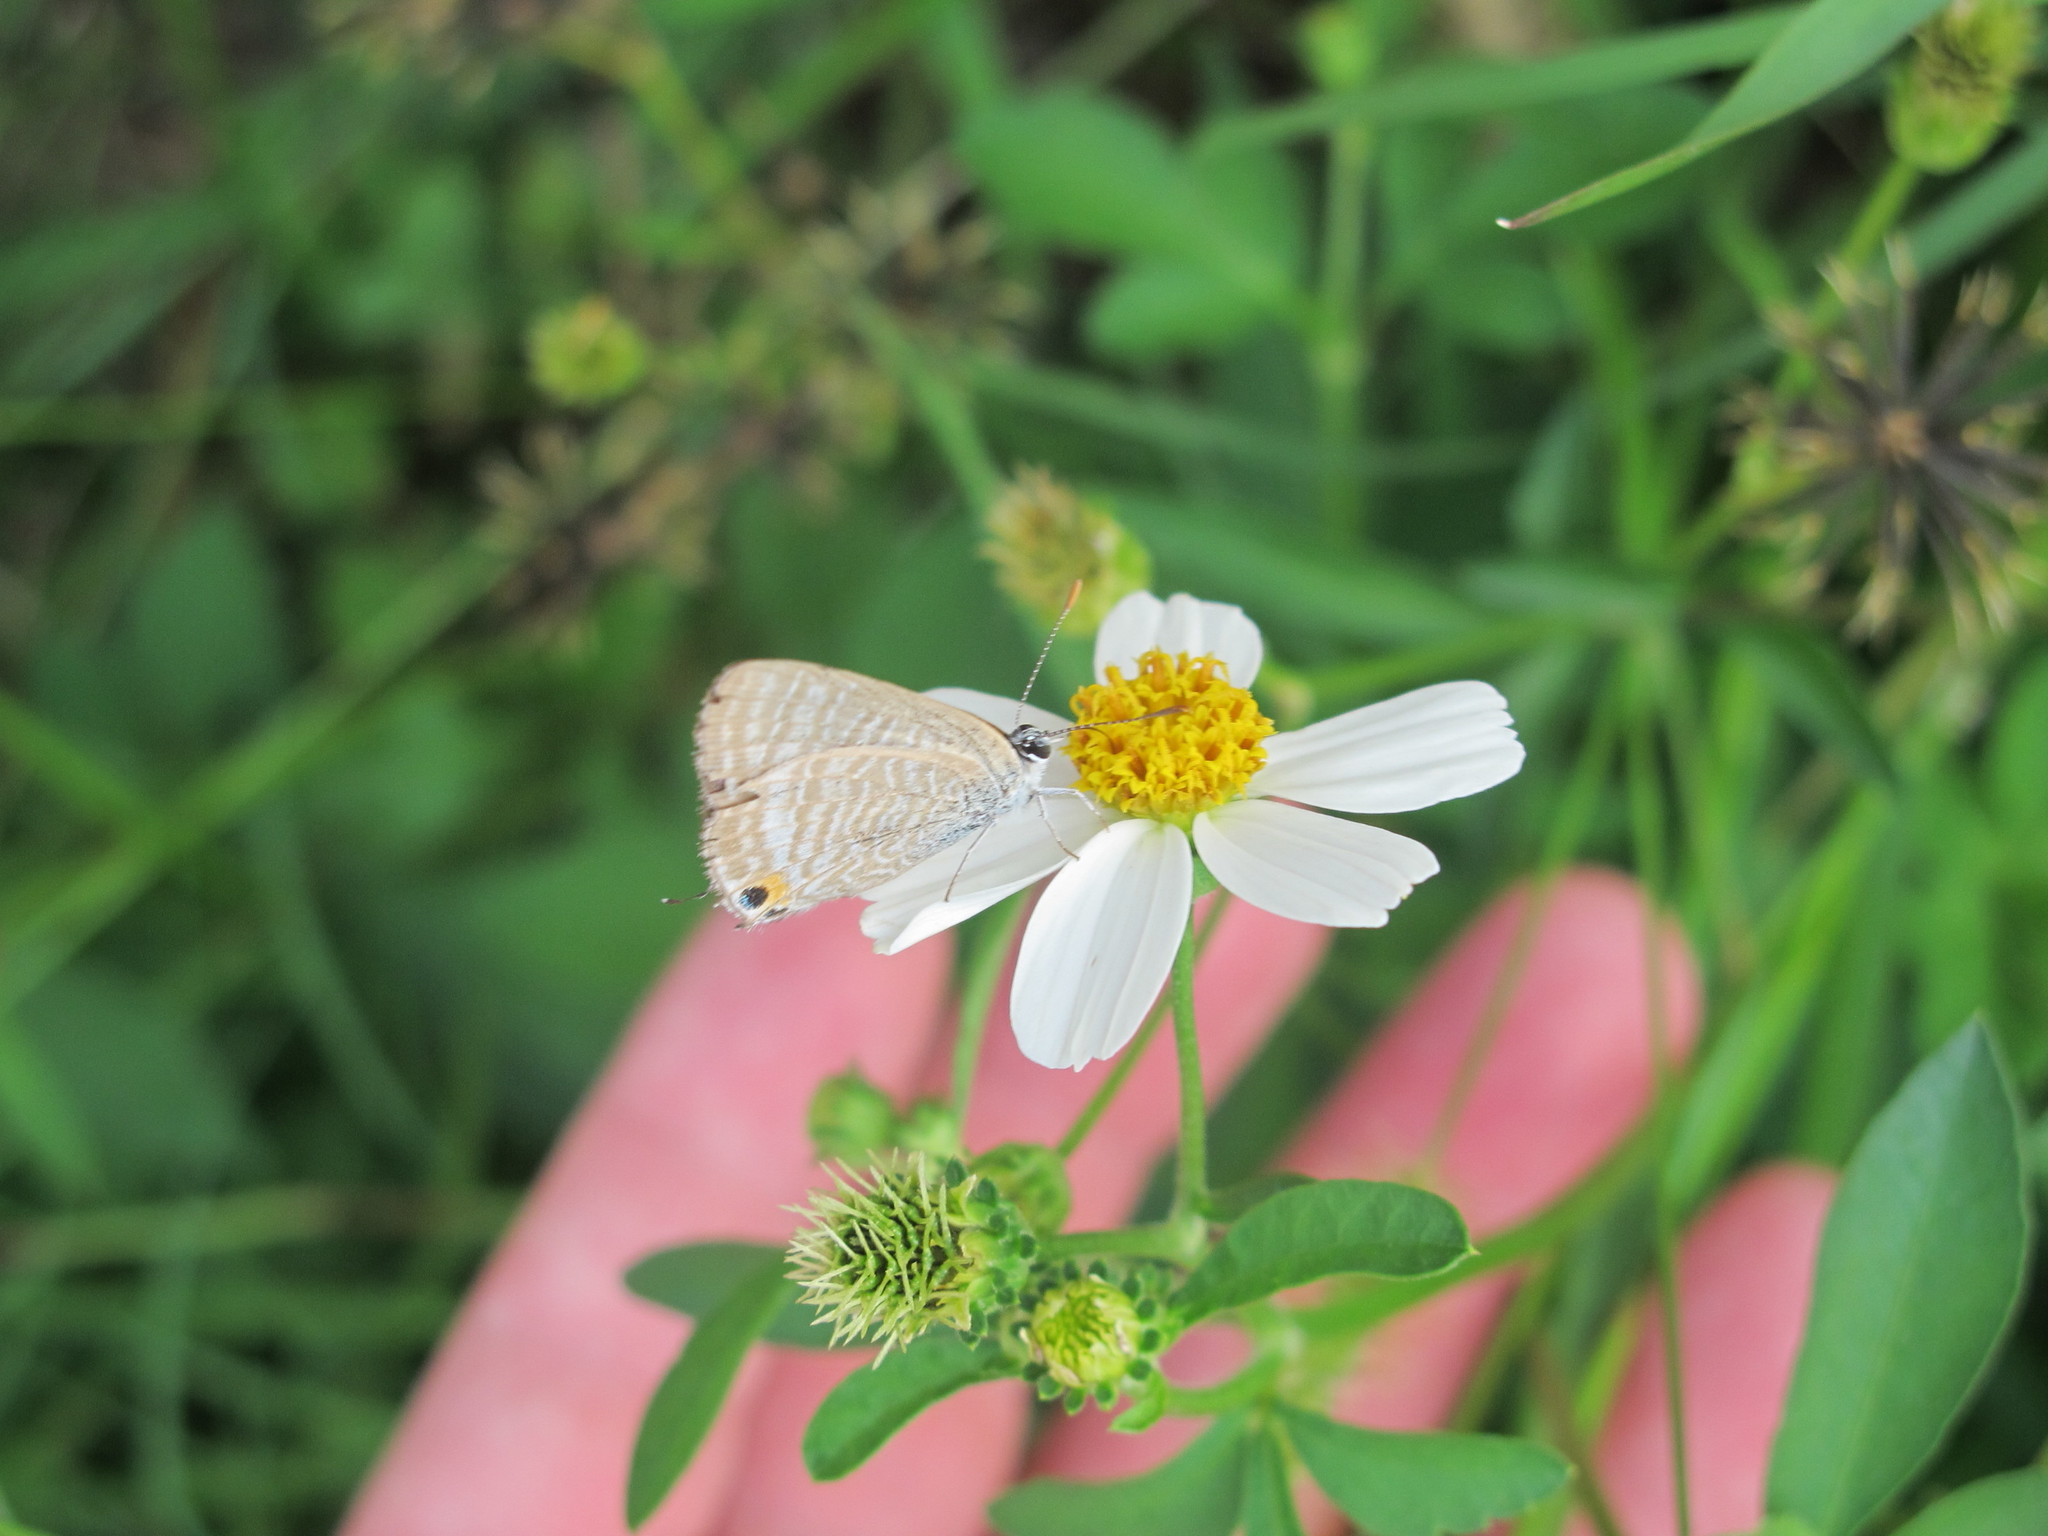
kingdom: Animalia
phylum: Arthropoda
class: Insecta
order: Lepidoptera
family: Lycaenidae
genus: Lampides
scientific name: Lampides boeticus
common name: Long-tailed blue
